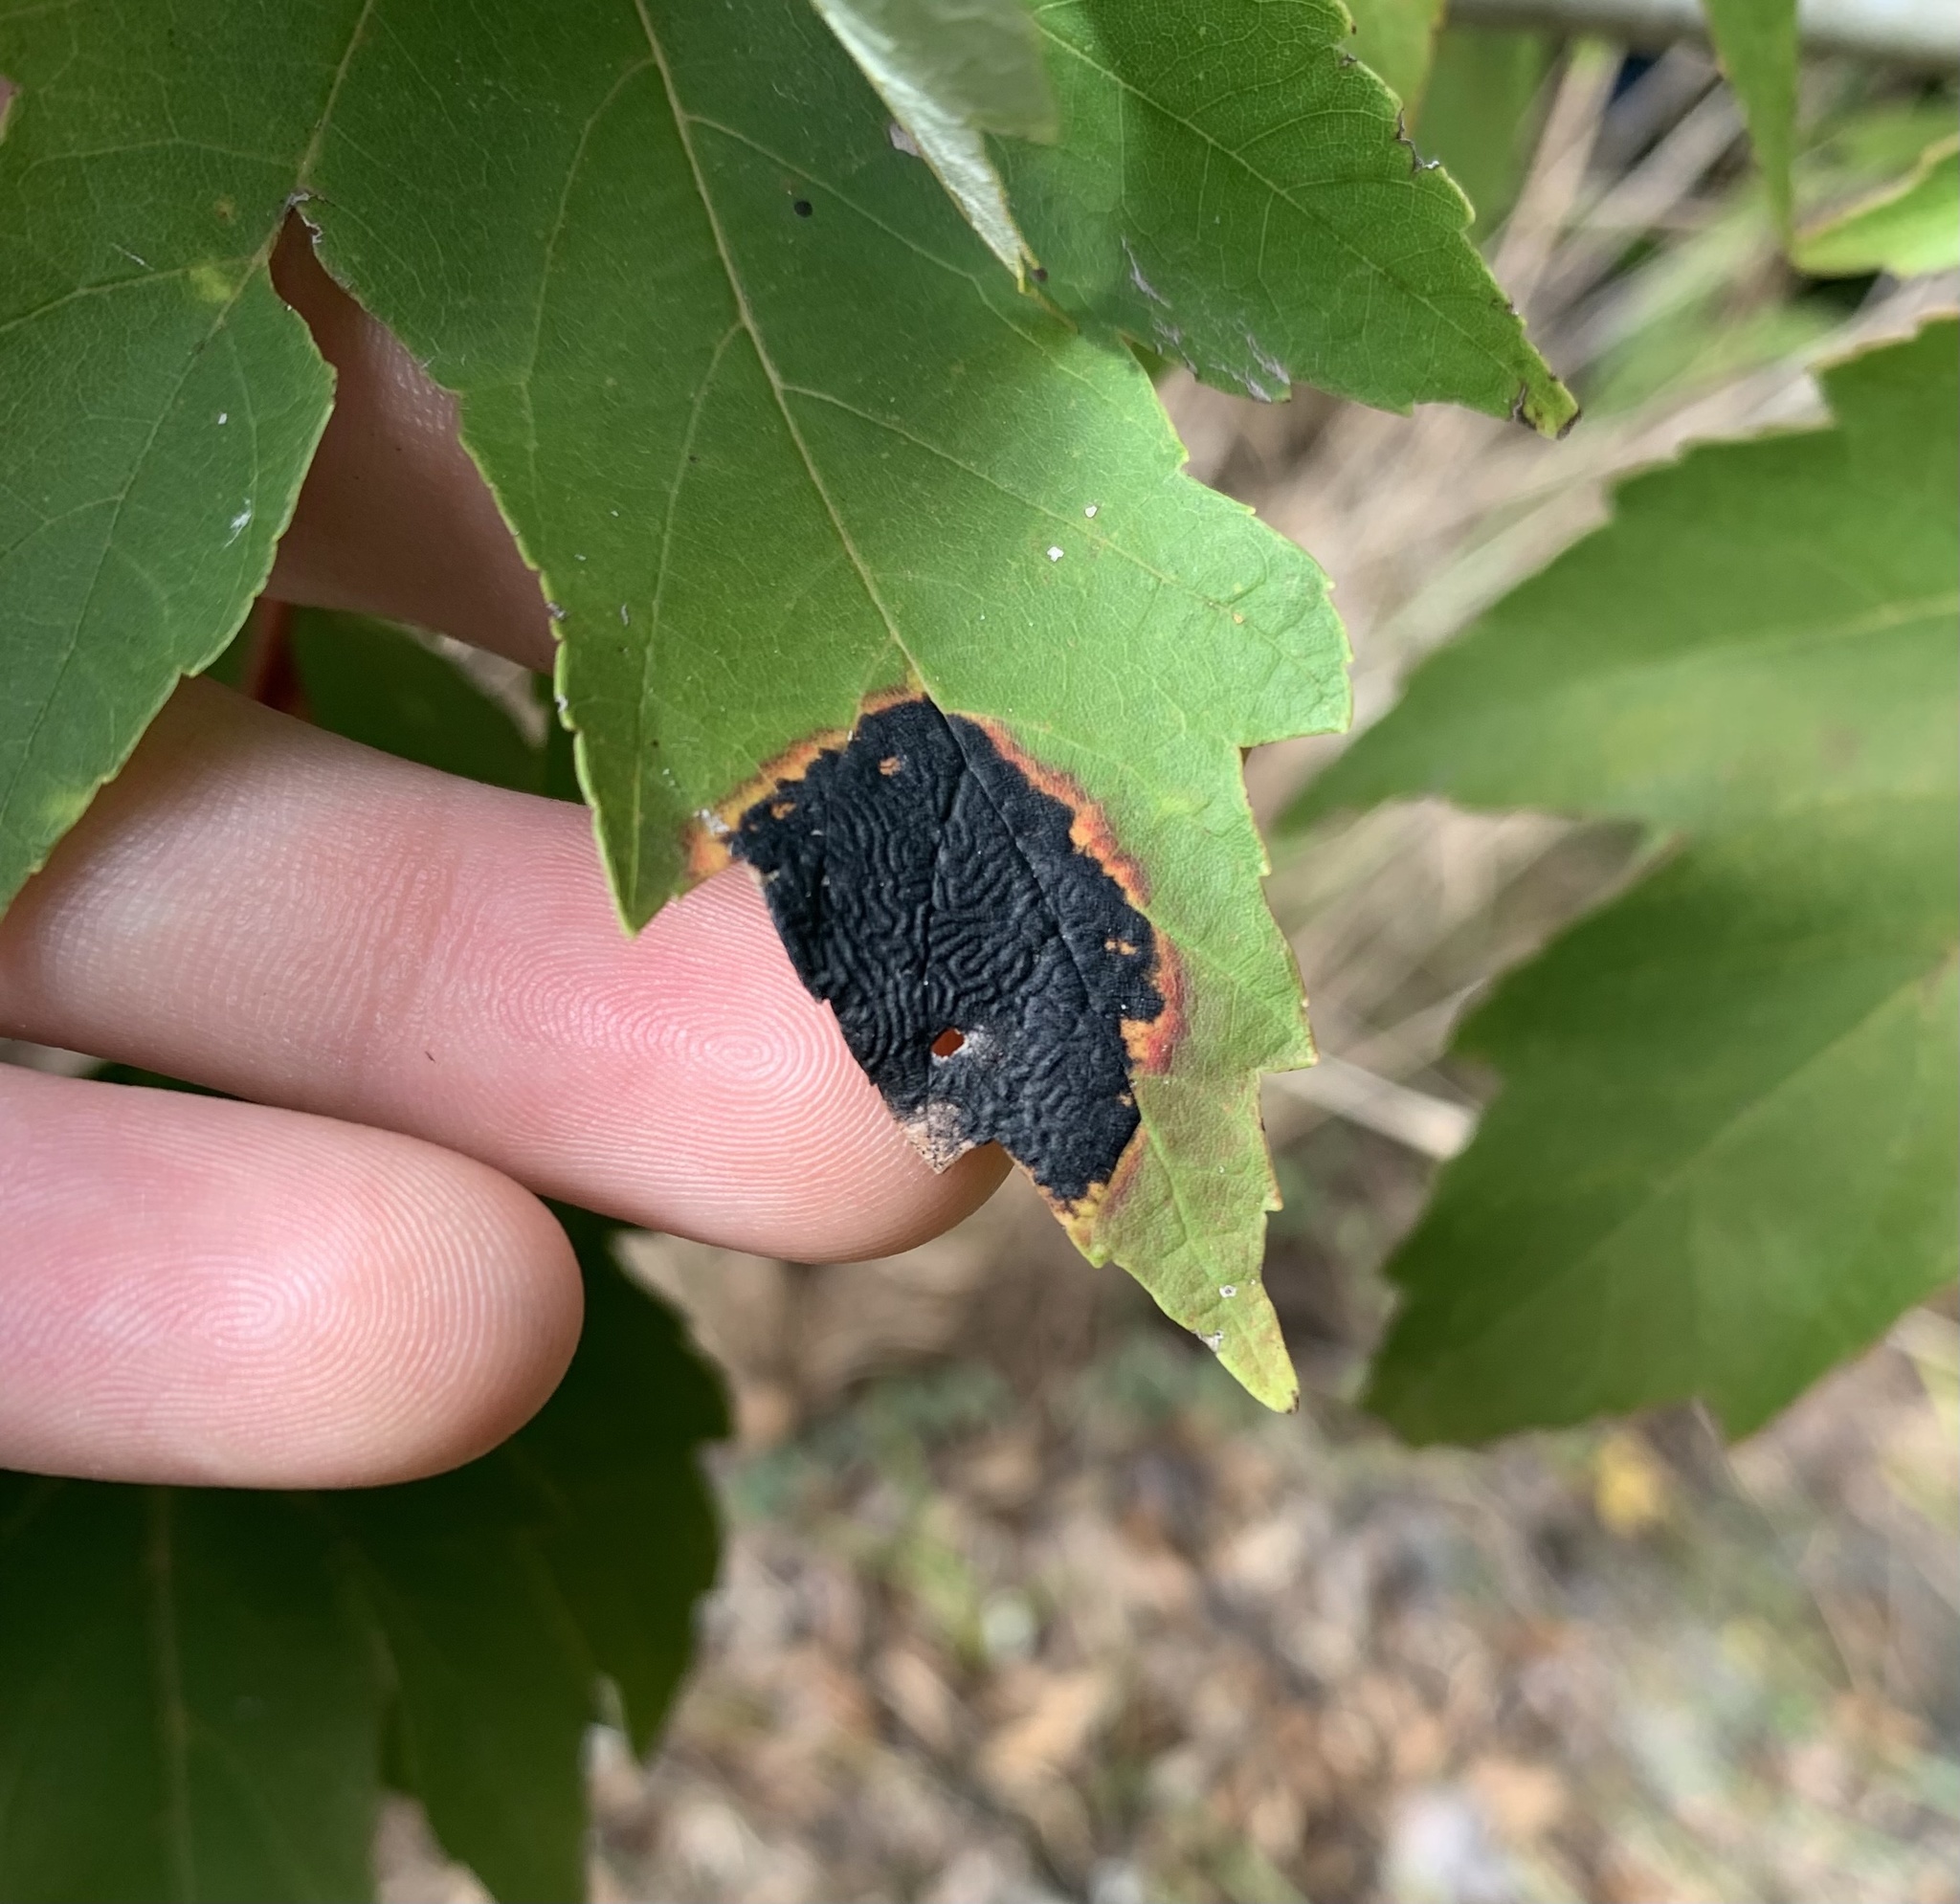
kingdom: Fungi
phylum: Ascomycota
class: Leotiomycetes
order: Rhytismatales
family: Rhytismataceae
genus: Rhytisma
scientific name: Rhytisma americanum
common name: American tar spot
